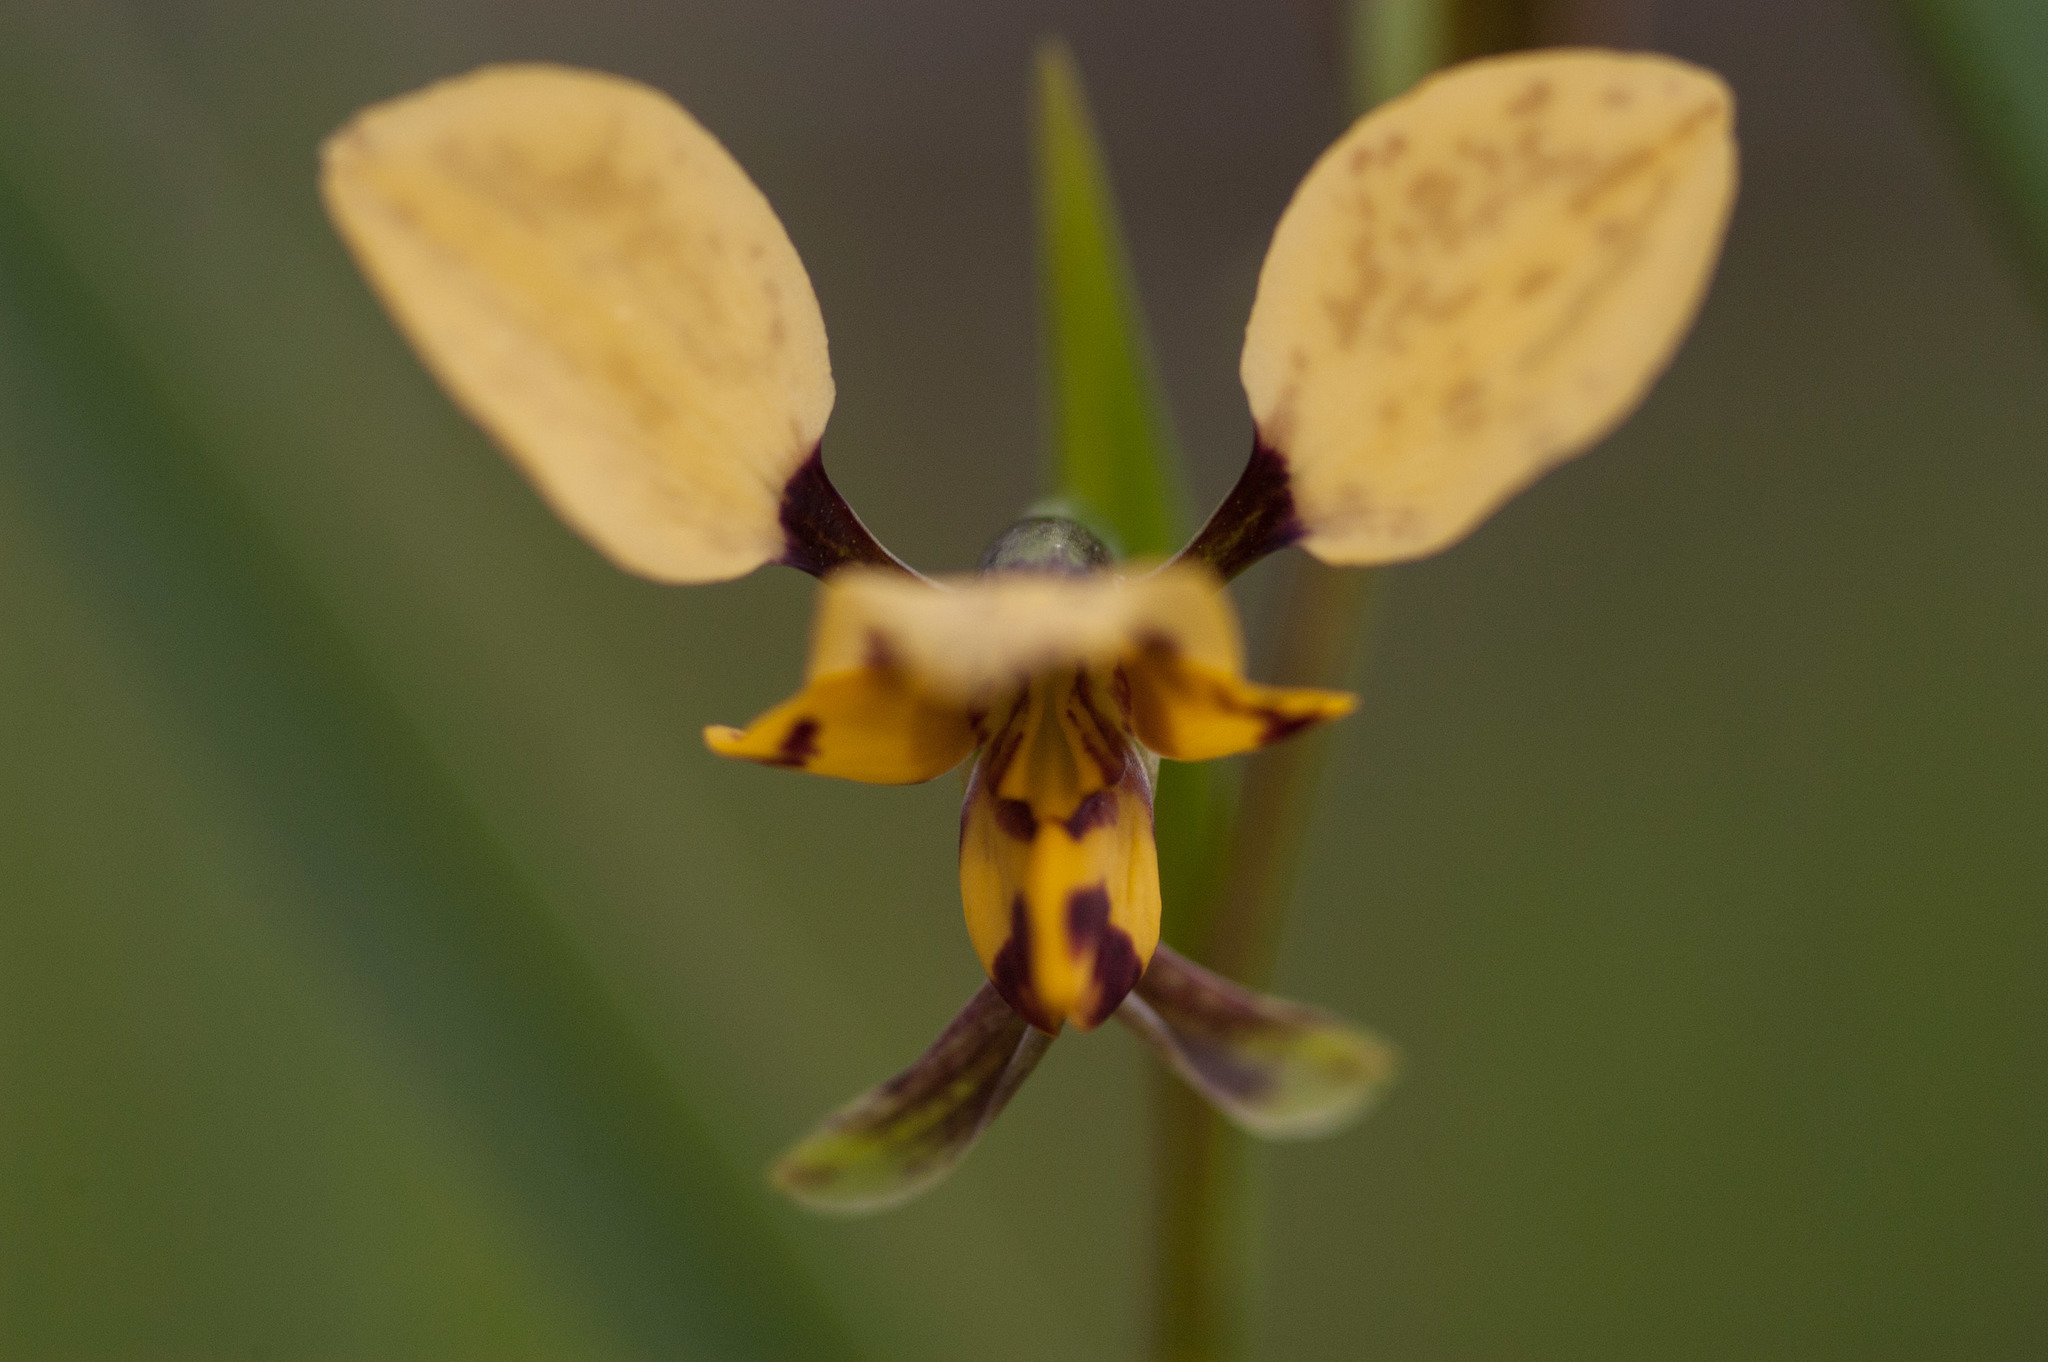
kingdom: Plantae
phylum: Tracheophyta
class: Liliopsida
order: Asparagales
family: Orchidaceae
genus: Diuris
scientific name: Diuris pardina
